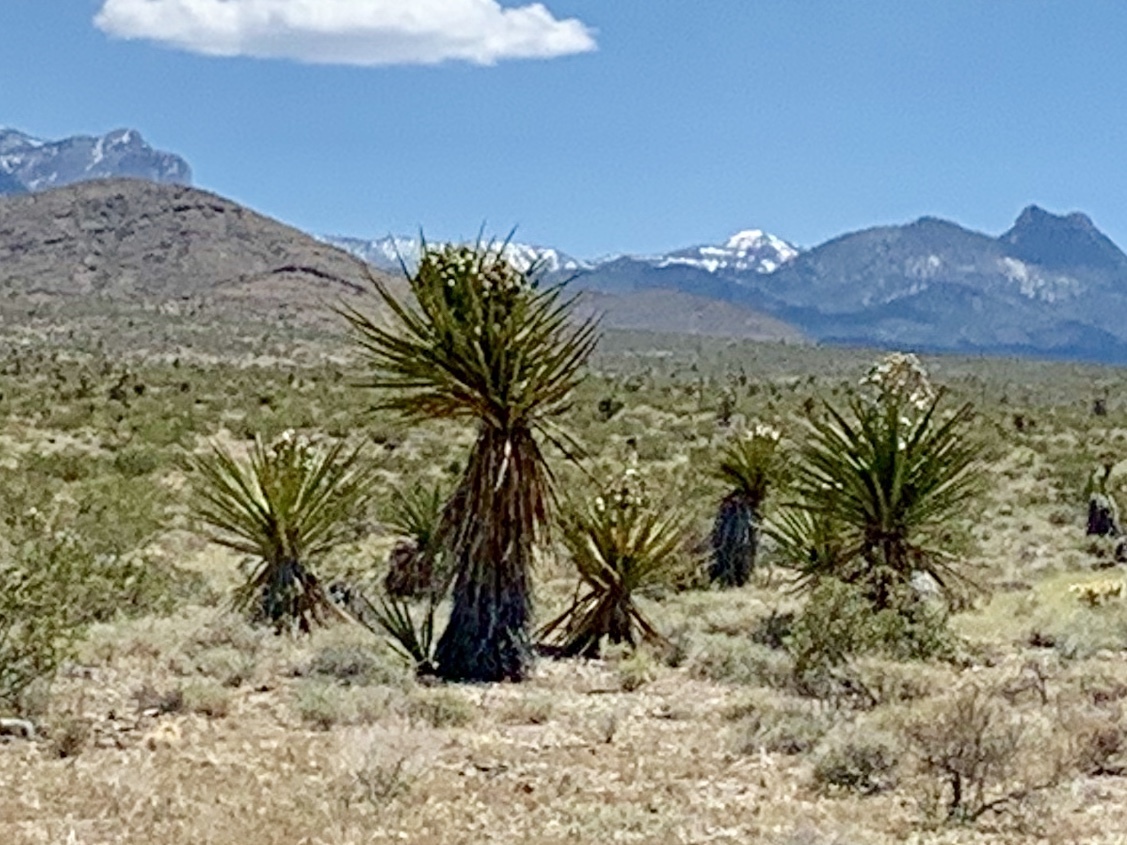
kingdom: Plantae
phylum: Tracheophyta
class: Liliopsida
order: Asparagales
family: Asparagaceae
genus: Yucca
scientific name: Yucca schidigera
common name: Mojave yucca
